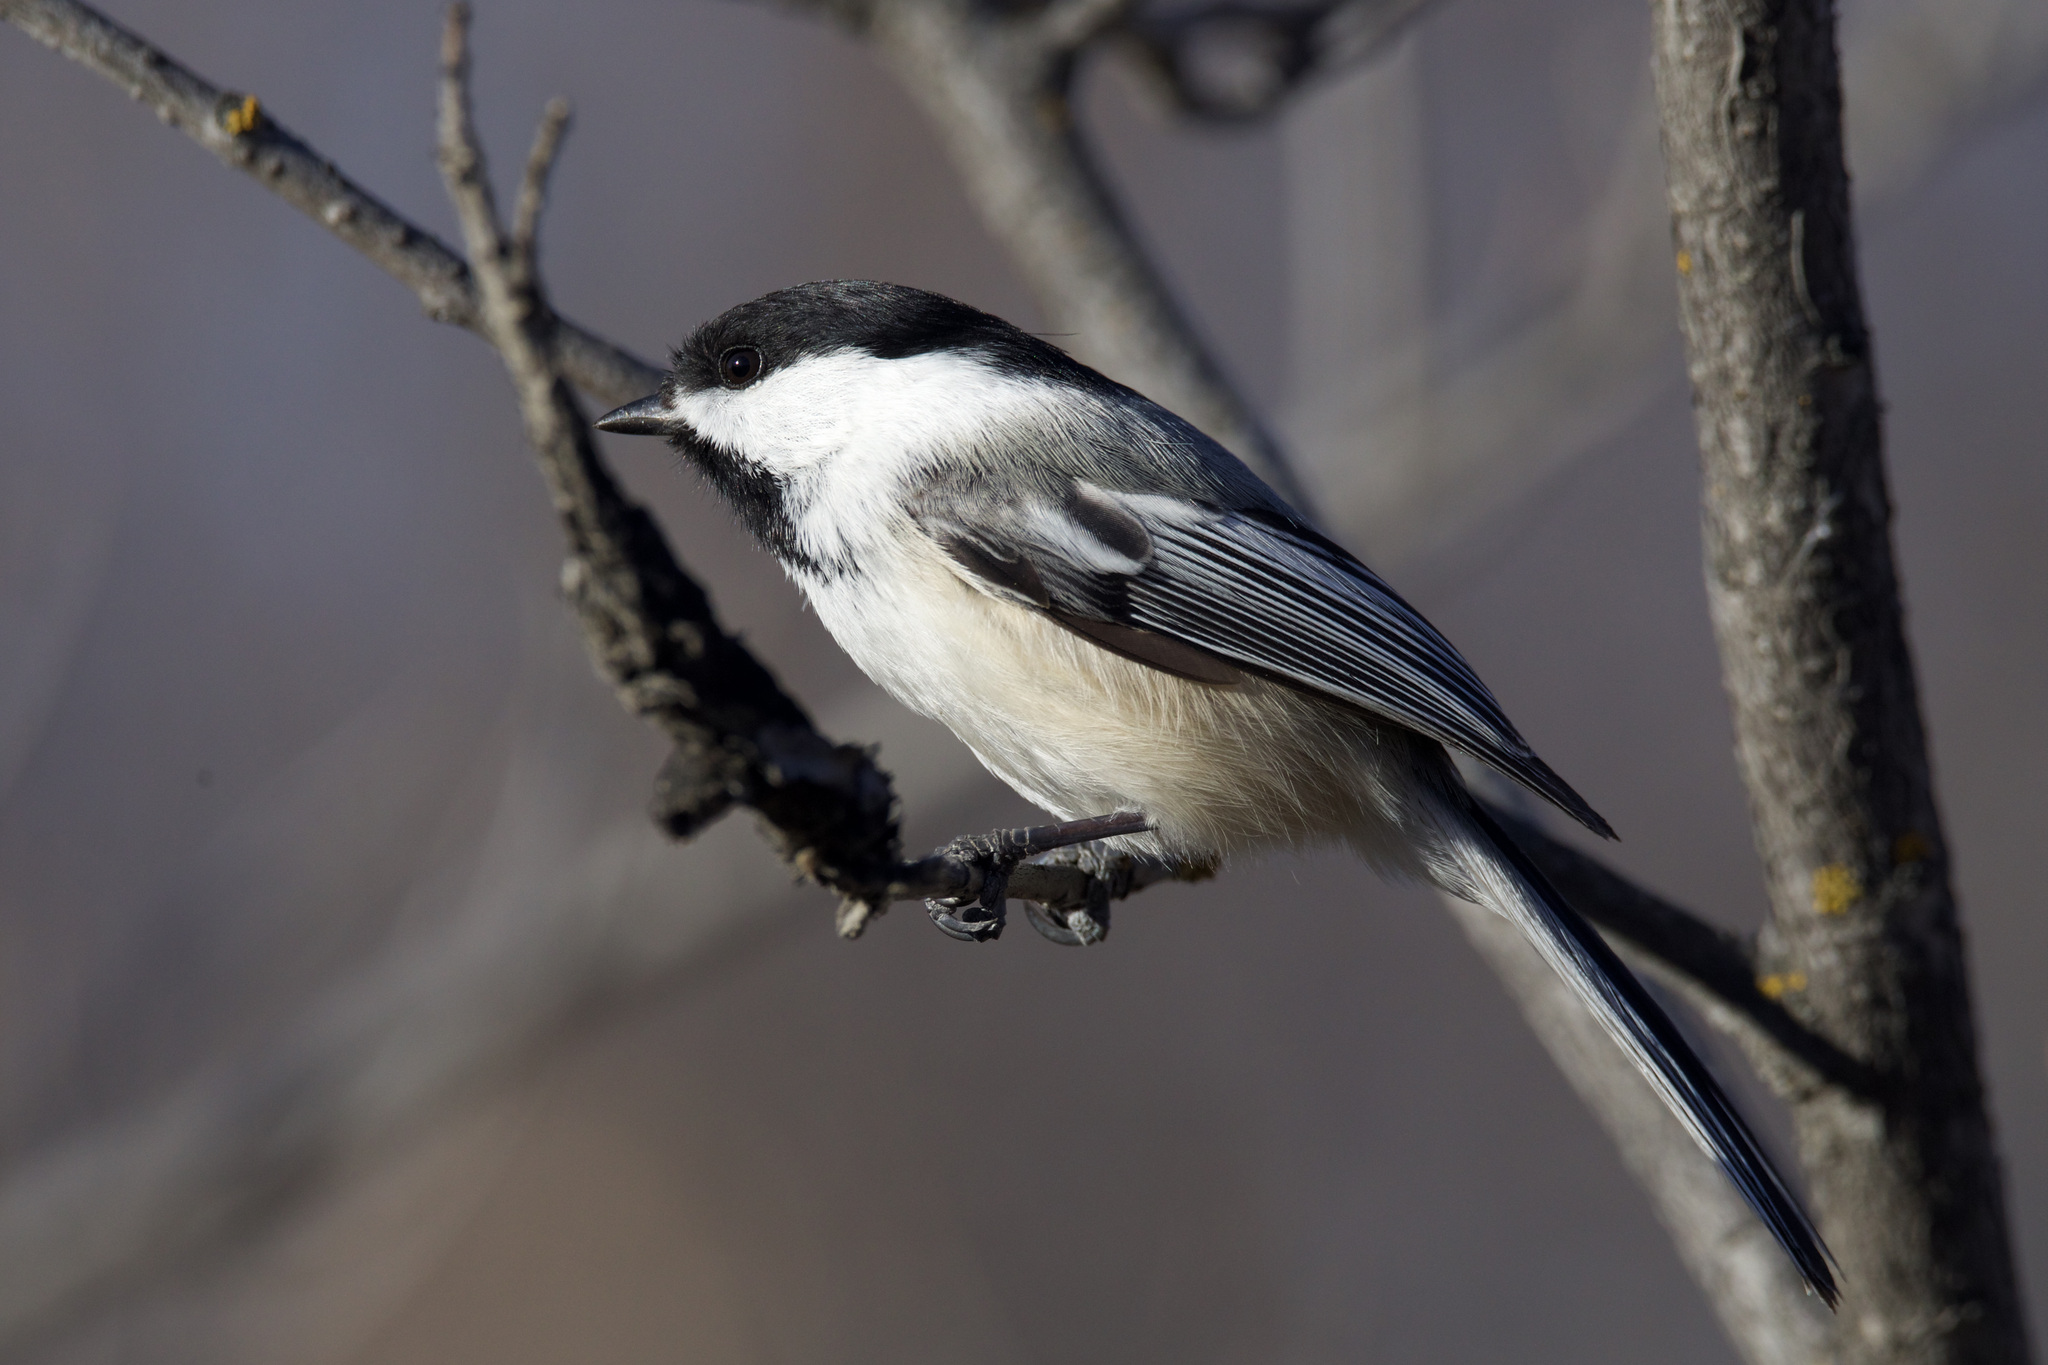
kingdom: Animalia
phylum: Chordata
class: Aves
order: Passeriformes
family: Paridae
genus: Poecile
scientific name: Poecile atricapillus
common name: Black-capped chickadee
